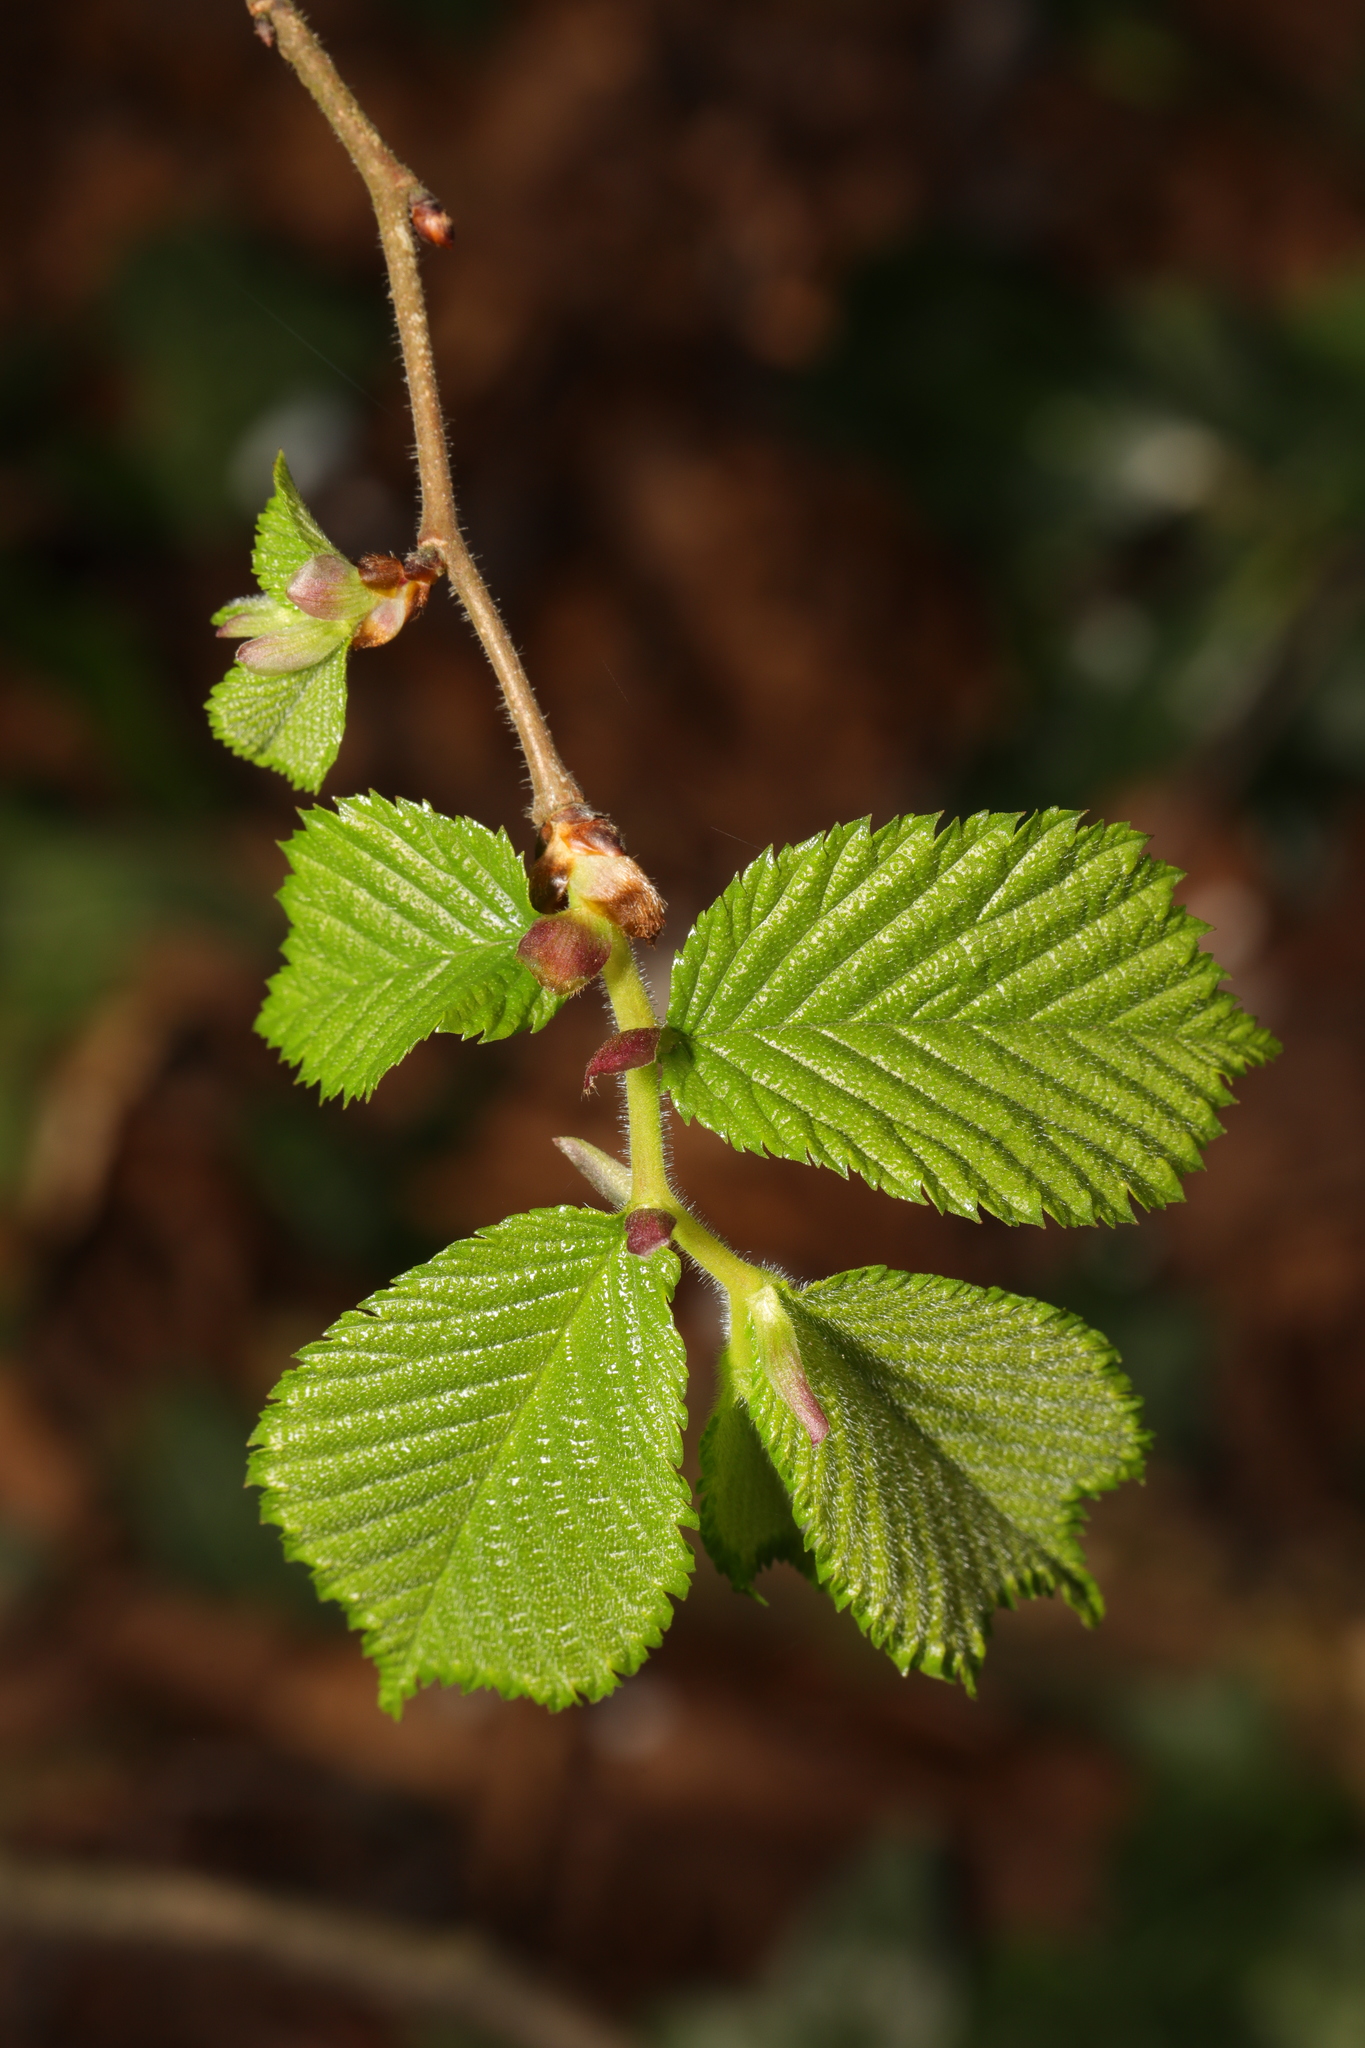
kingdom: Plantae
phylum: Tracheophyta
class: Magnoliopsida
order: Fagales
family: Betulaceae
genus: Corylus
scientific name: Corylus avellana
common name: European hazel
